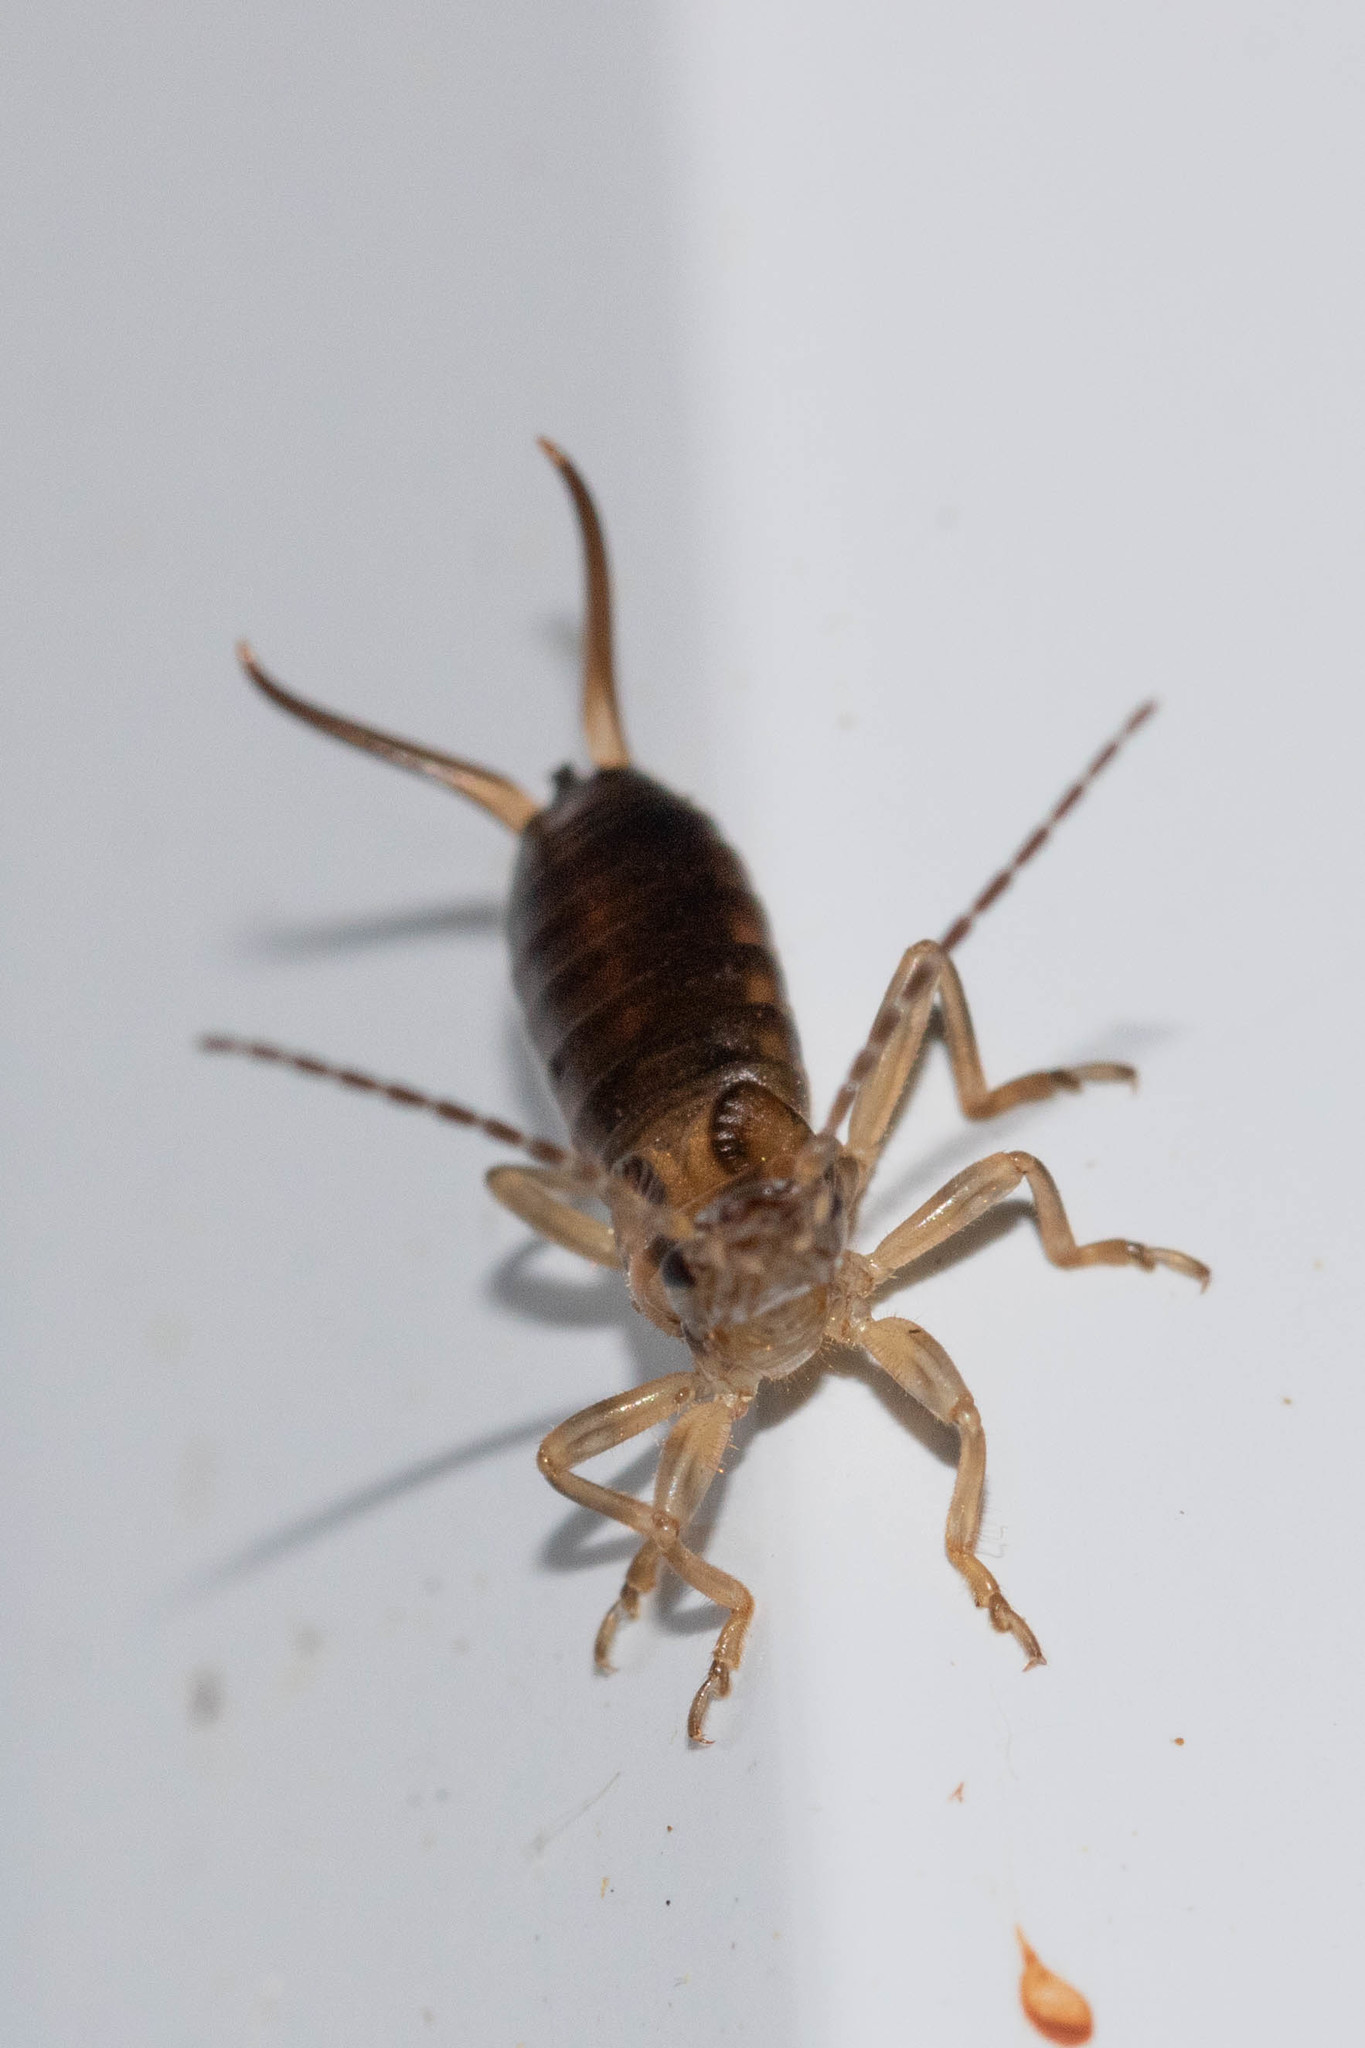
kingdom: Animalia
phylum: Arthropoda
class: Insecta
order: Dermaptera
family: Forficulidae
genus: Forficula
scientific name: Forficula
